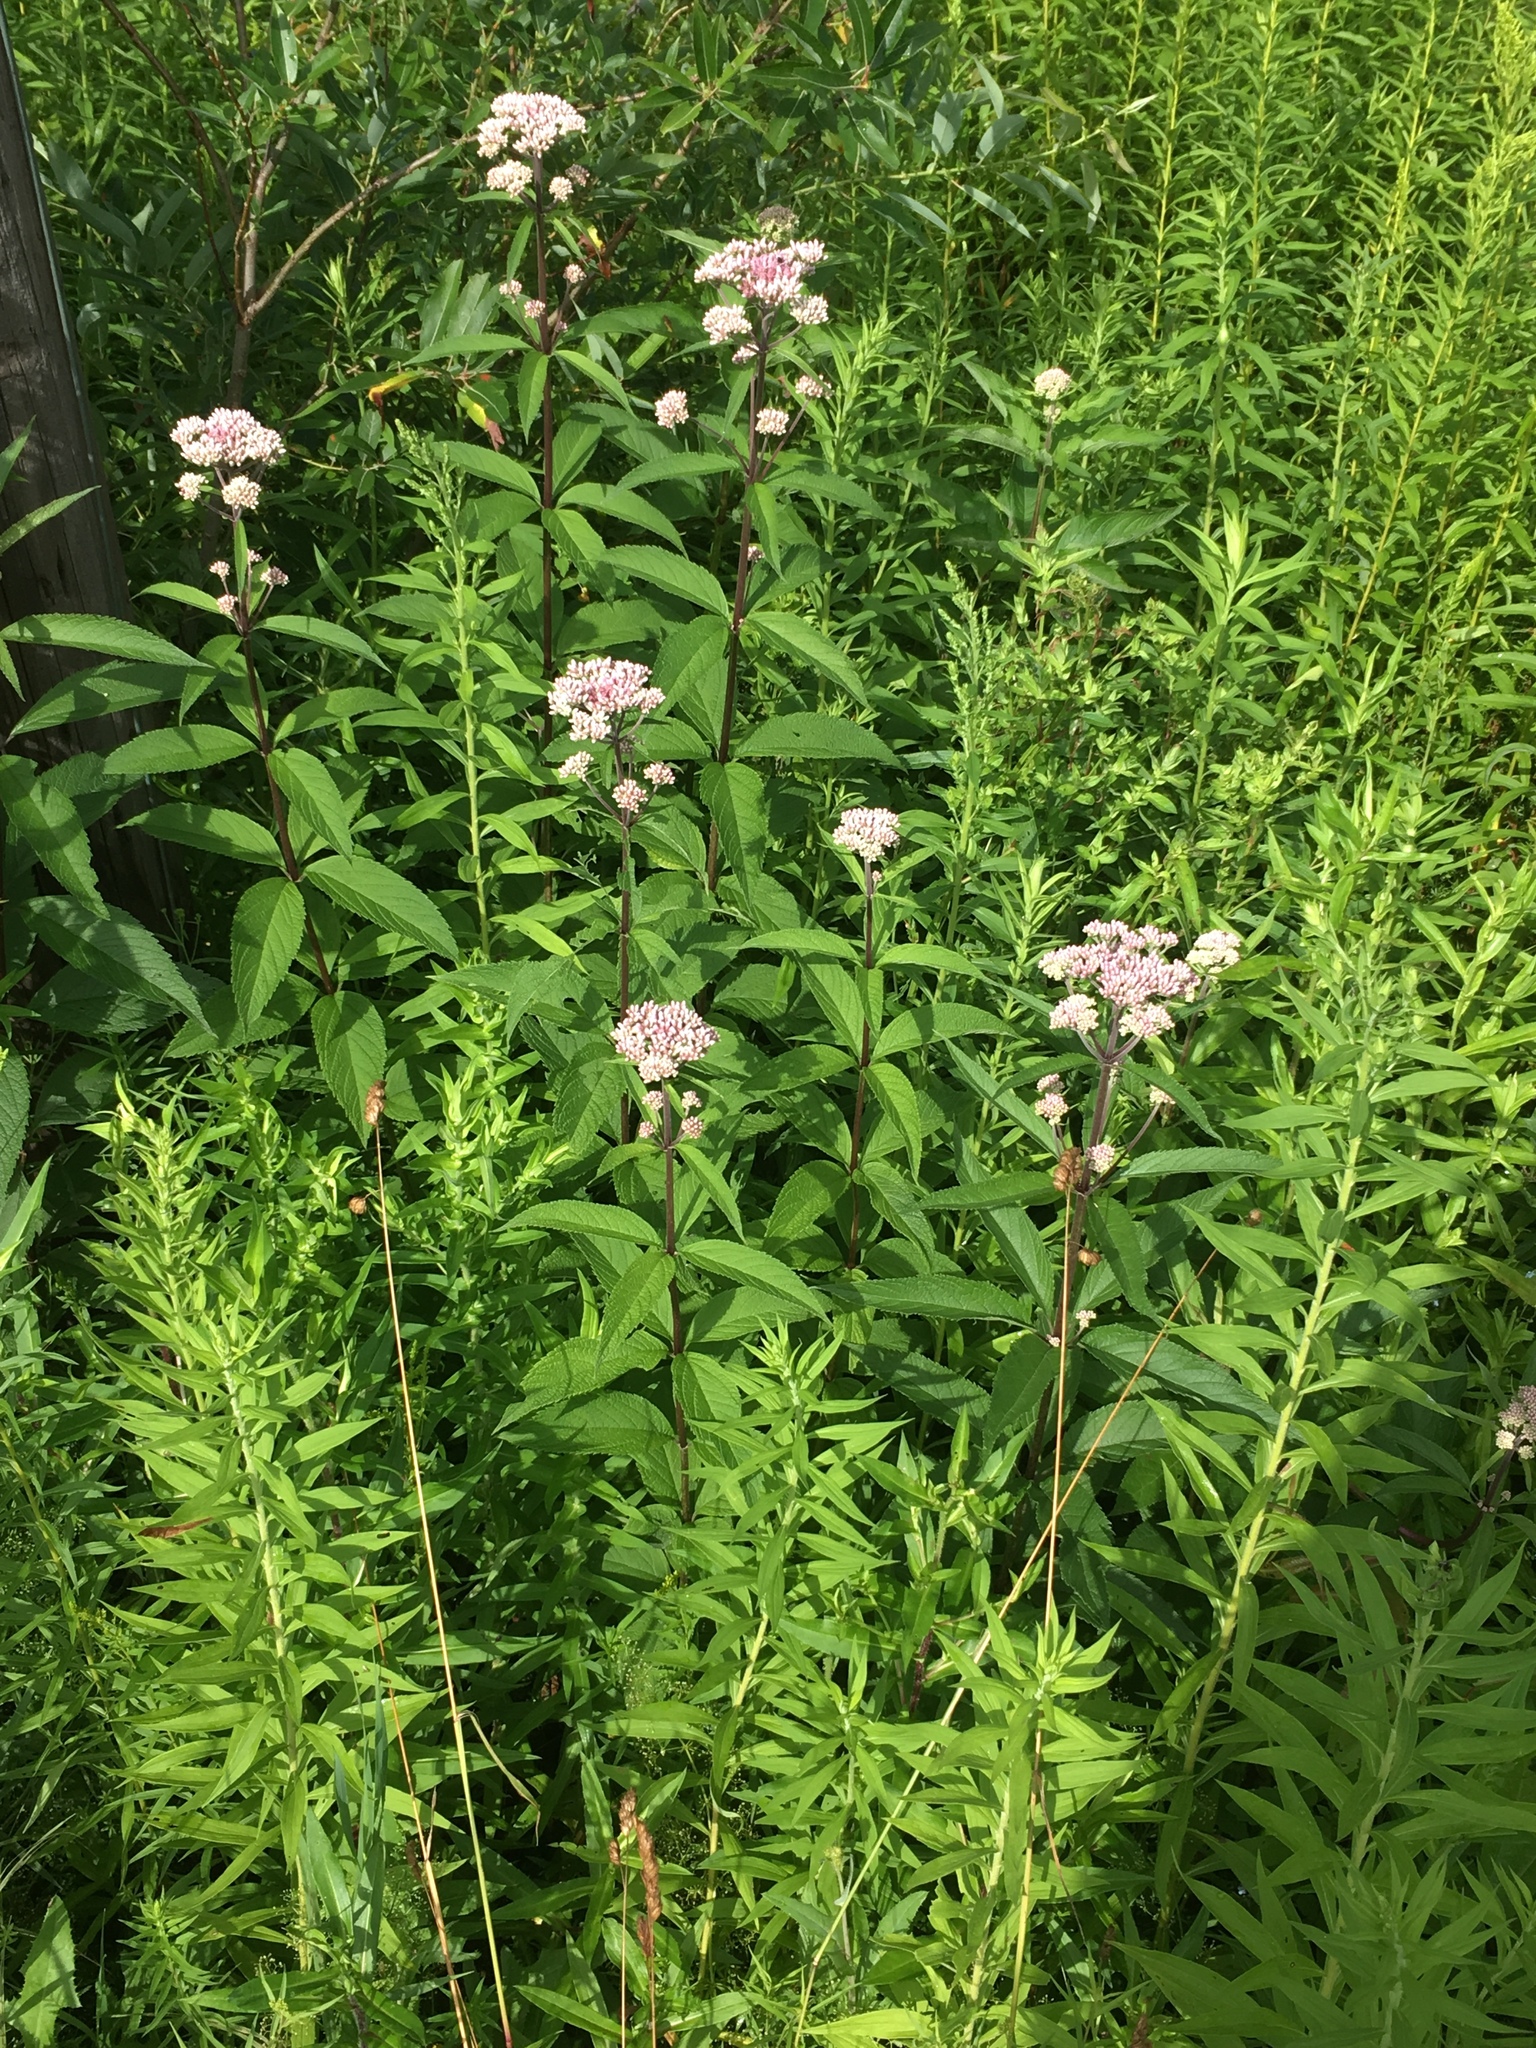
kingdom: Plantae
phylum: Tracheophyta
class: Magnoliopsida
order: Asterales
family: Asteraceae
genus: Eutrochium
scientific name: Eutrochium maculatum
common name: Spotted joe pye weed
